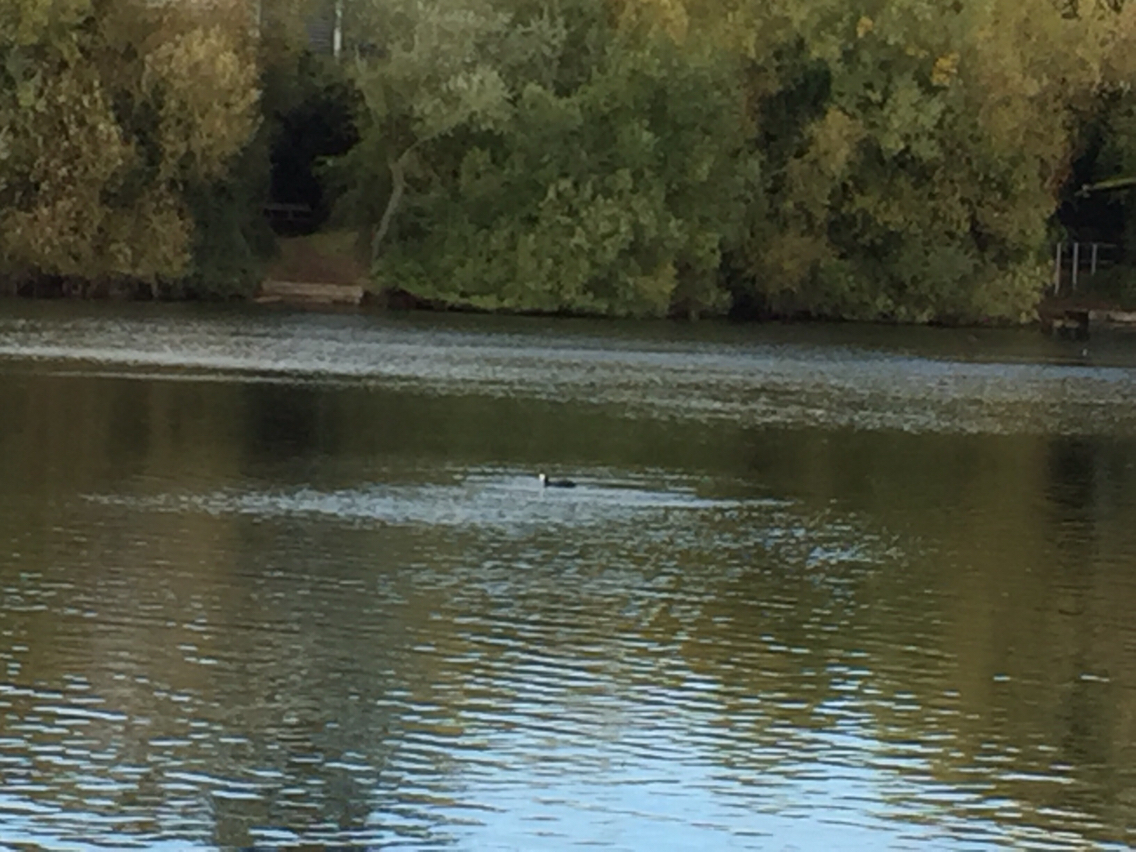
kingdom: Animalia
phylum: Chordata
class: Aves
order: Gruiformes
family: Rallidae
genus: Fulica
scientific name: Fulica atra
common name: Eurasian coot
